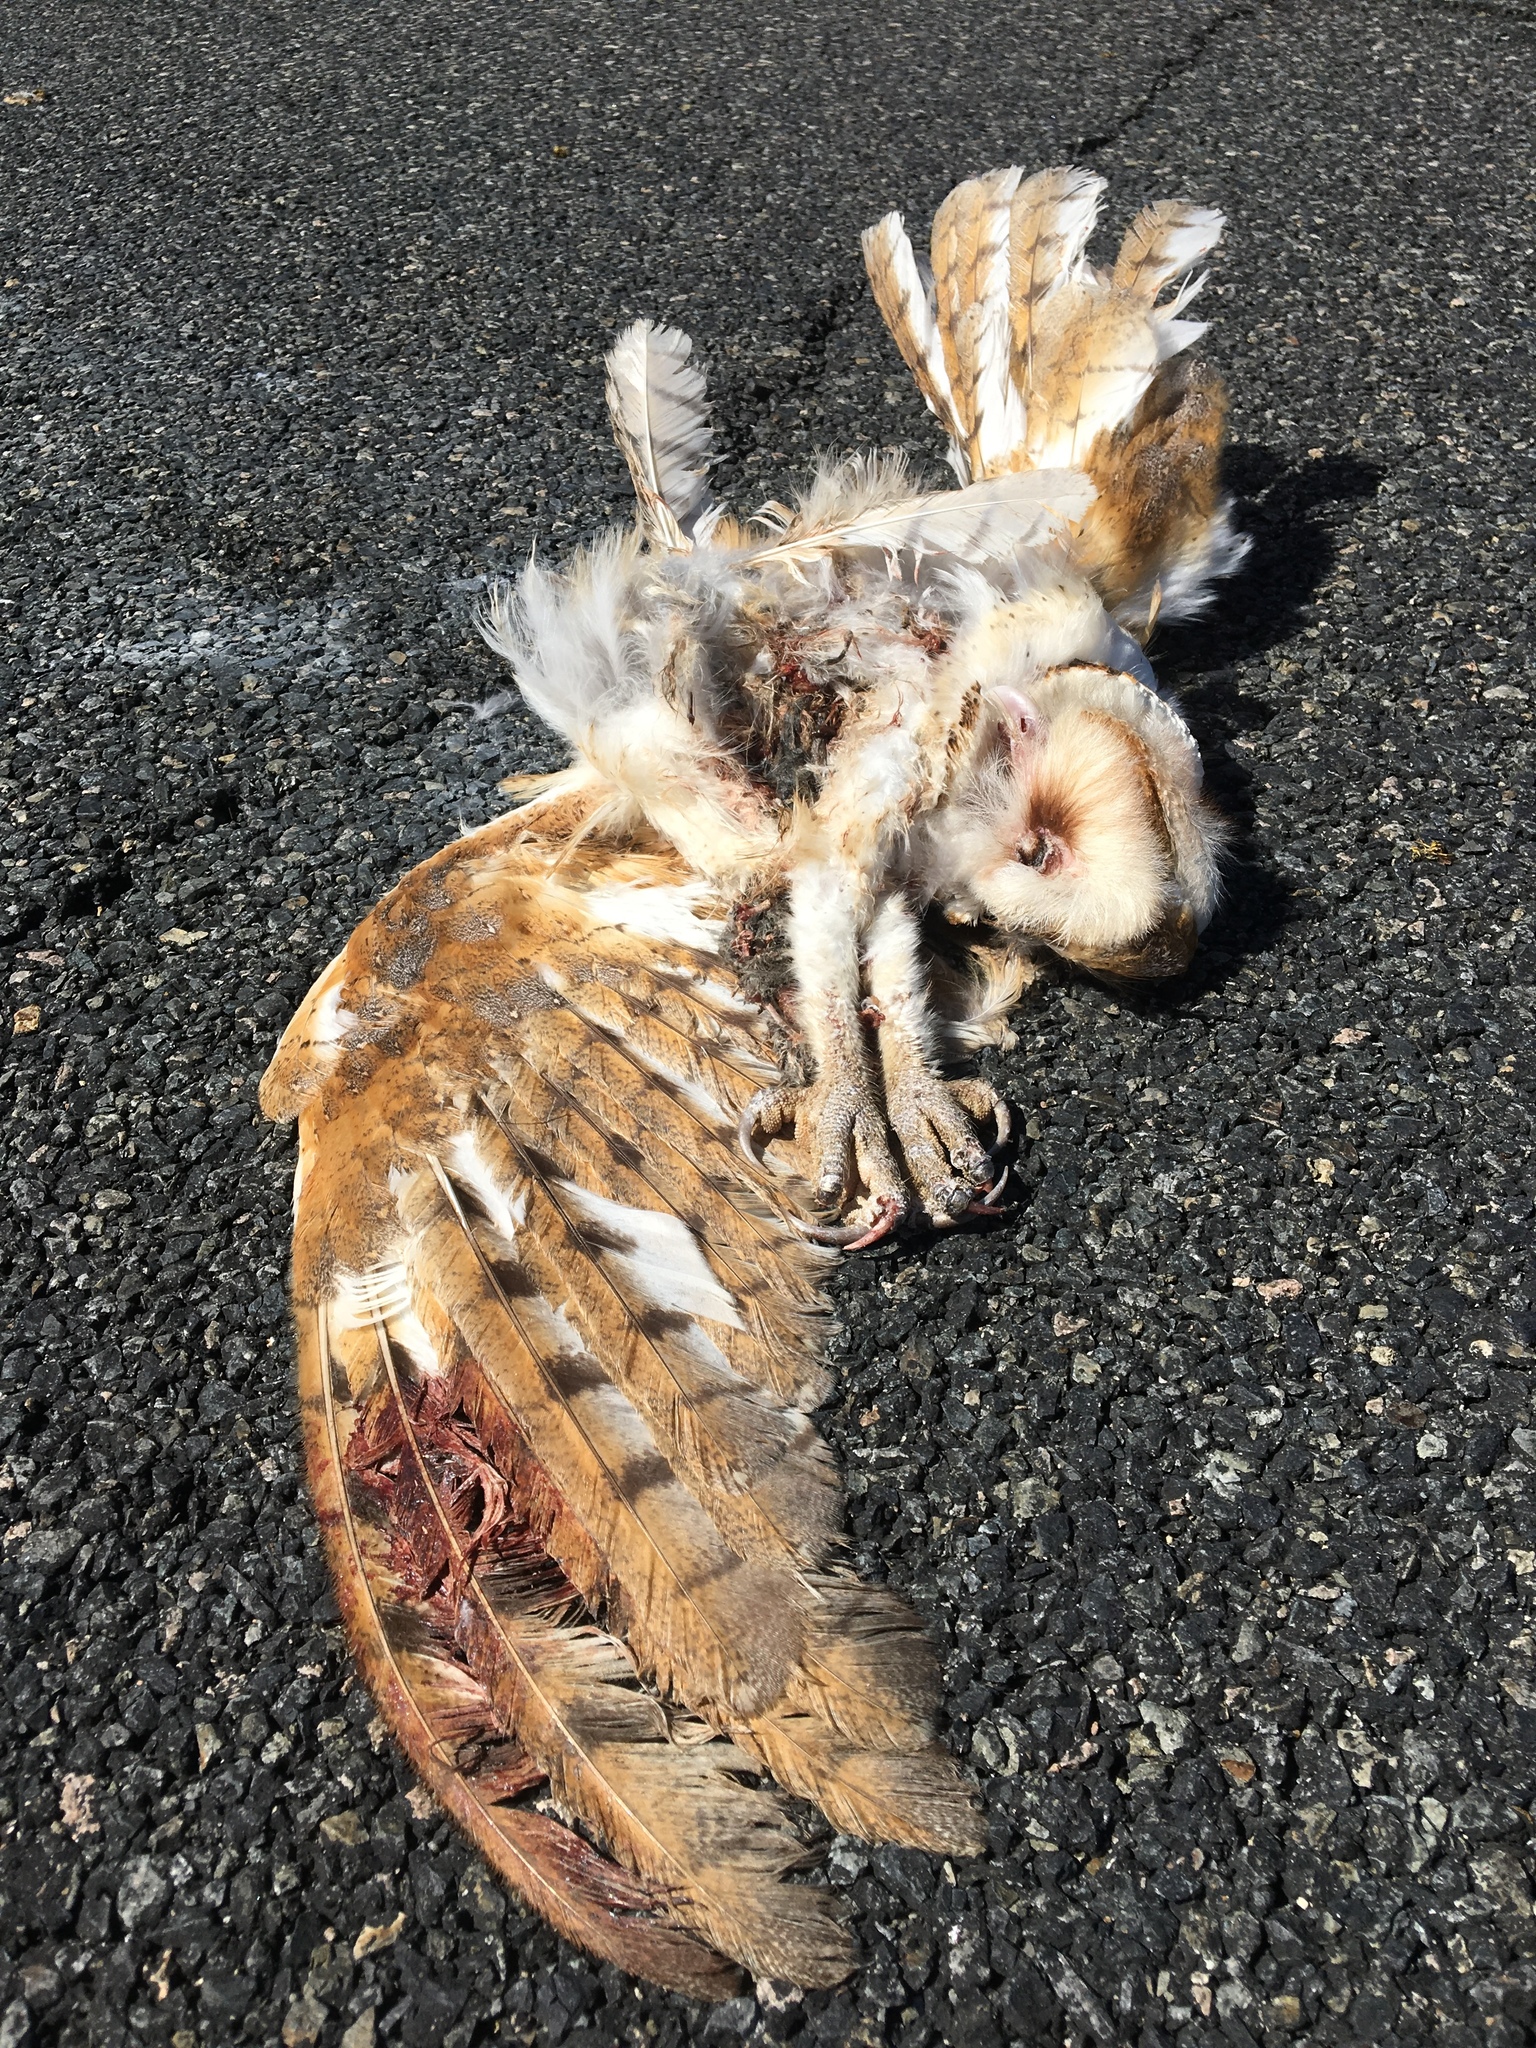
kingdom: Animalia
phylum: Chordata
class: Aves
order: Strigiformes
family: Tytonidae
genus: Tyto
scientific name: Tyto alba
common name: Barn owl
